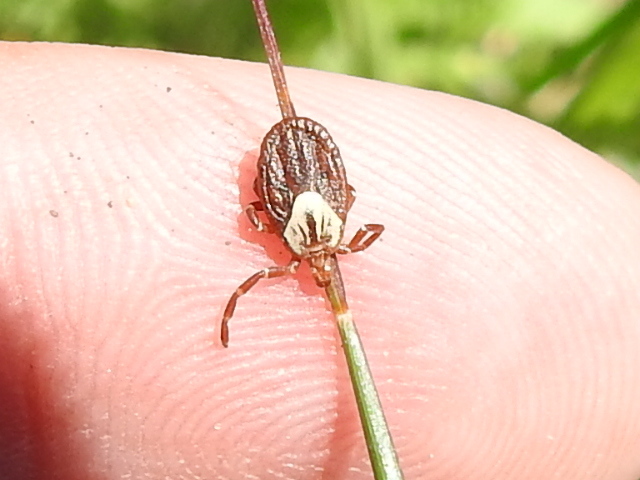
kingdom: Animalia
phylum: Arthropoda
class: Arachnida
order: Ixodida
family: Ixodidae
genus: Amblyomma
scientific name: Amblyomma maculatum
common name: Gulf coast tick
